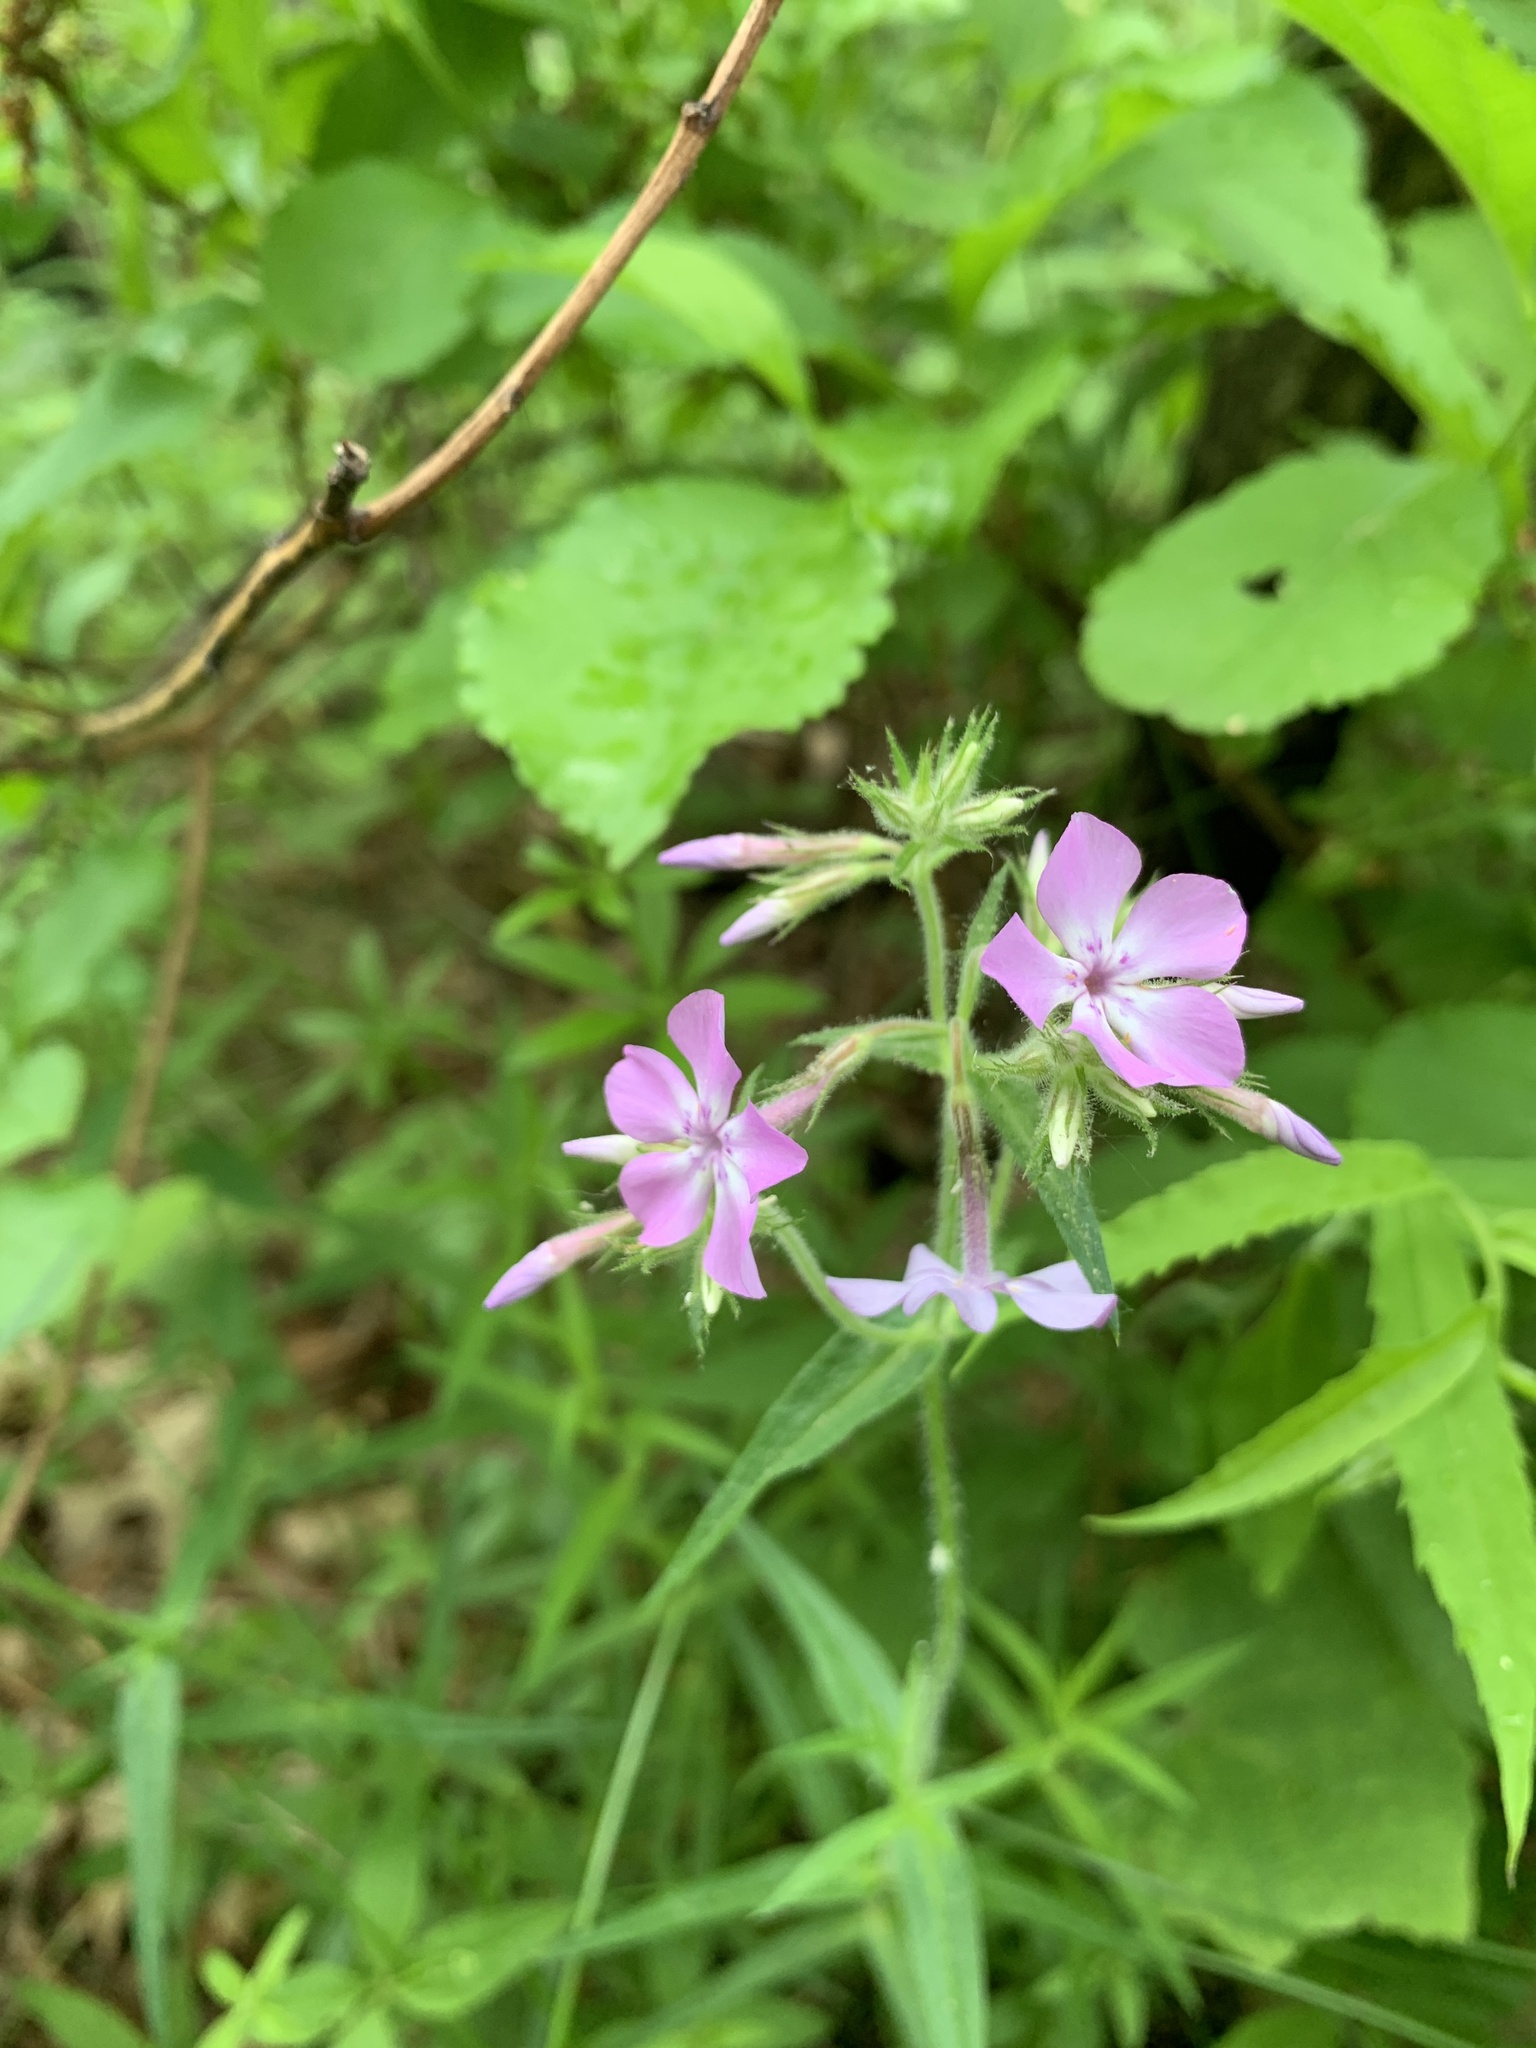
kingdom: Plantae
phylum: Tracheophyta
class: Magnoliopsida
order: Ericales
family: Polemoniaceae
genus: Phlox
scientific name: Phlox pilosa
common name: Prairie phlox
